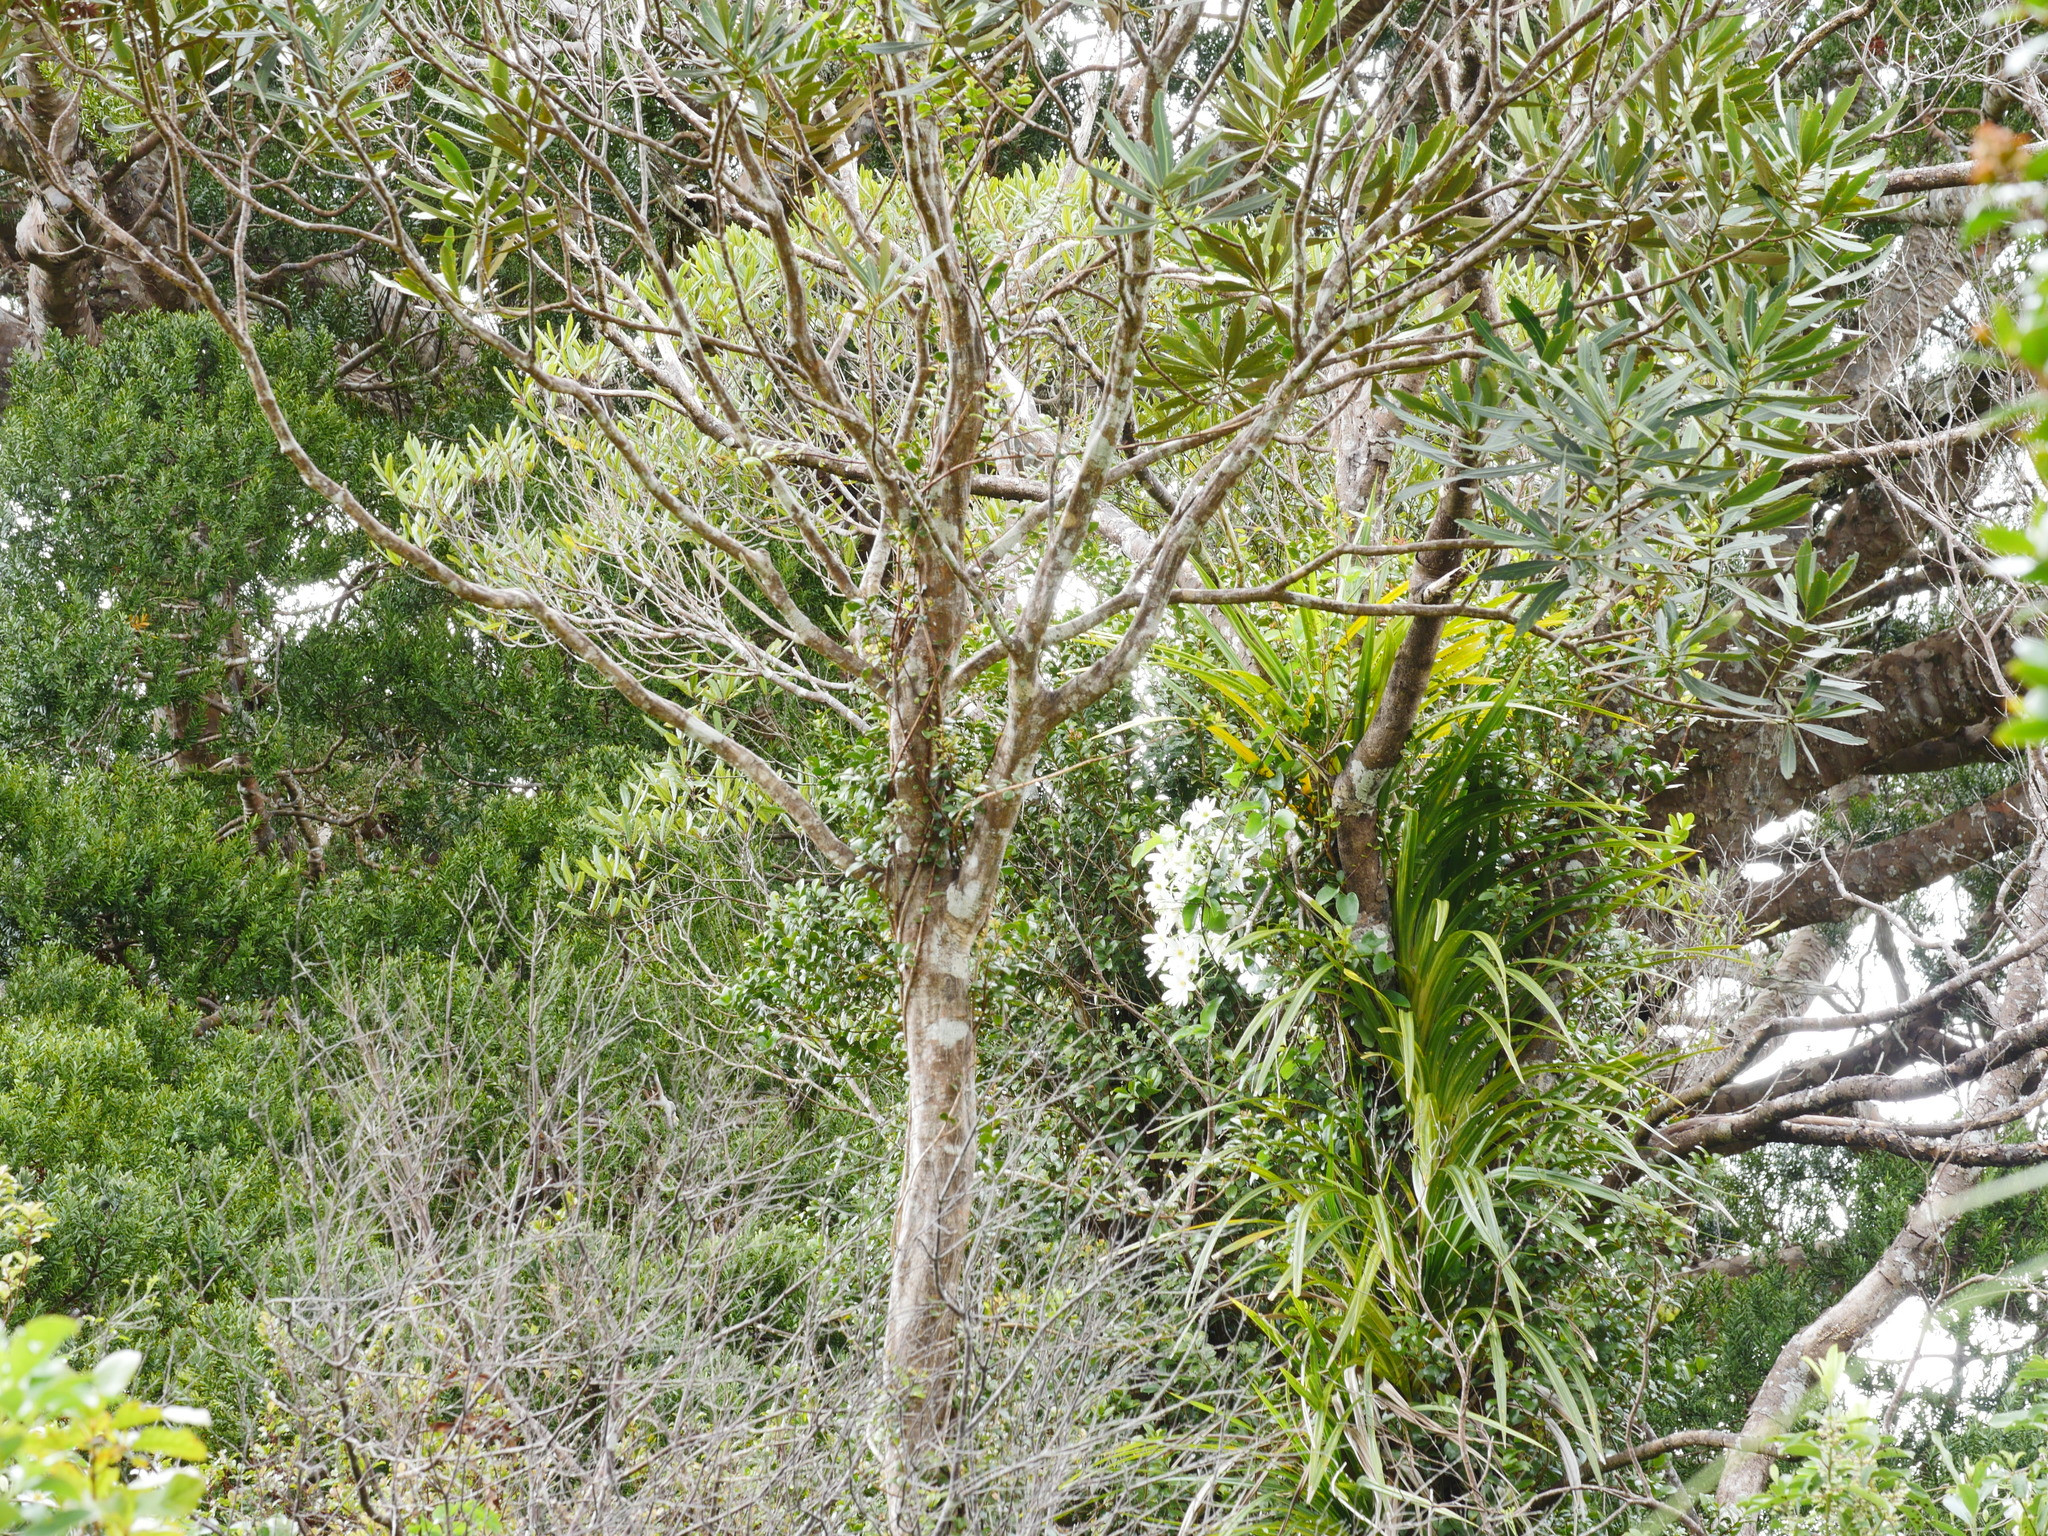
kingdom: Plantae
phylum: Tracheophyta
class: Magnoliopsida
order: Ranunculales
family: Ranunculaceae
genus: Clematis
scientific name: Clematis paniculata
